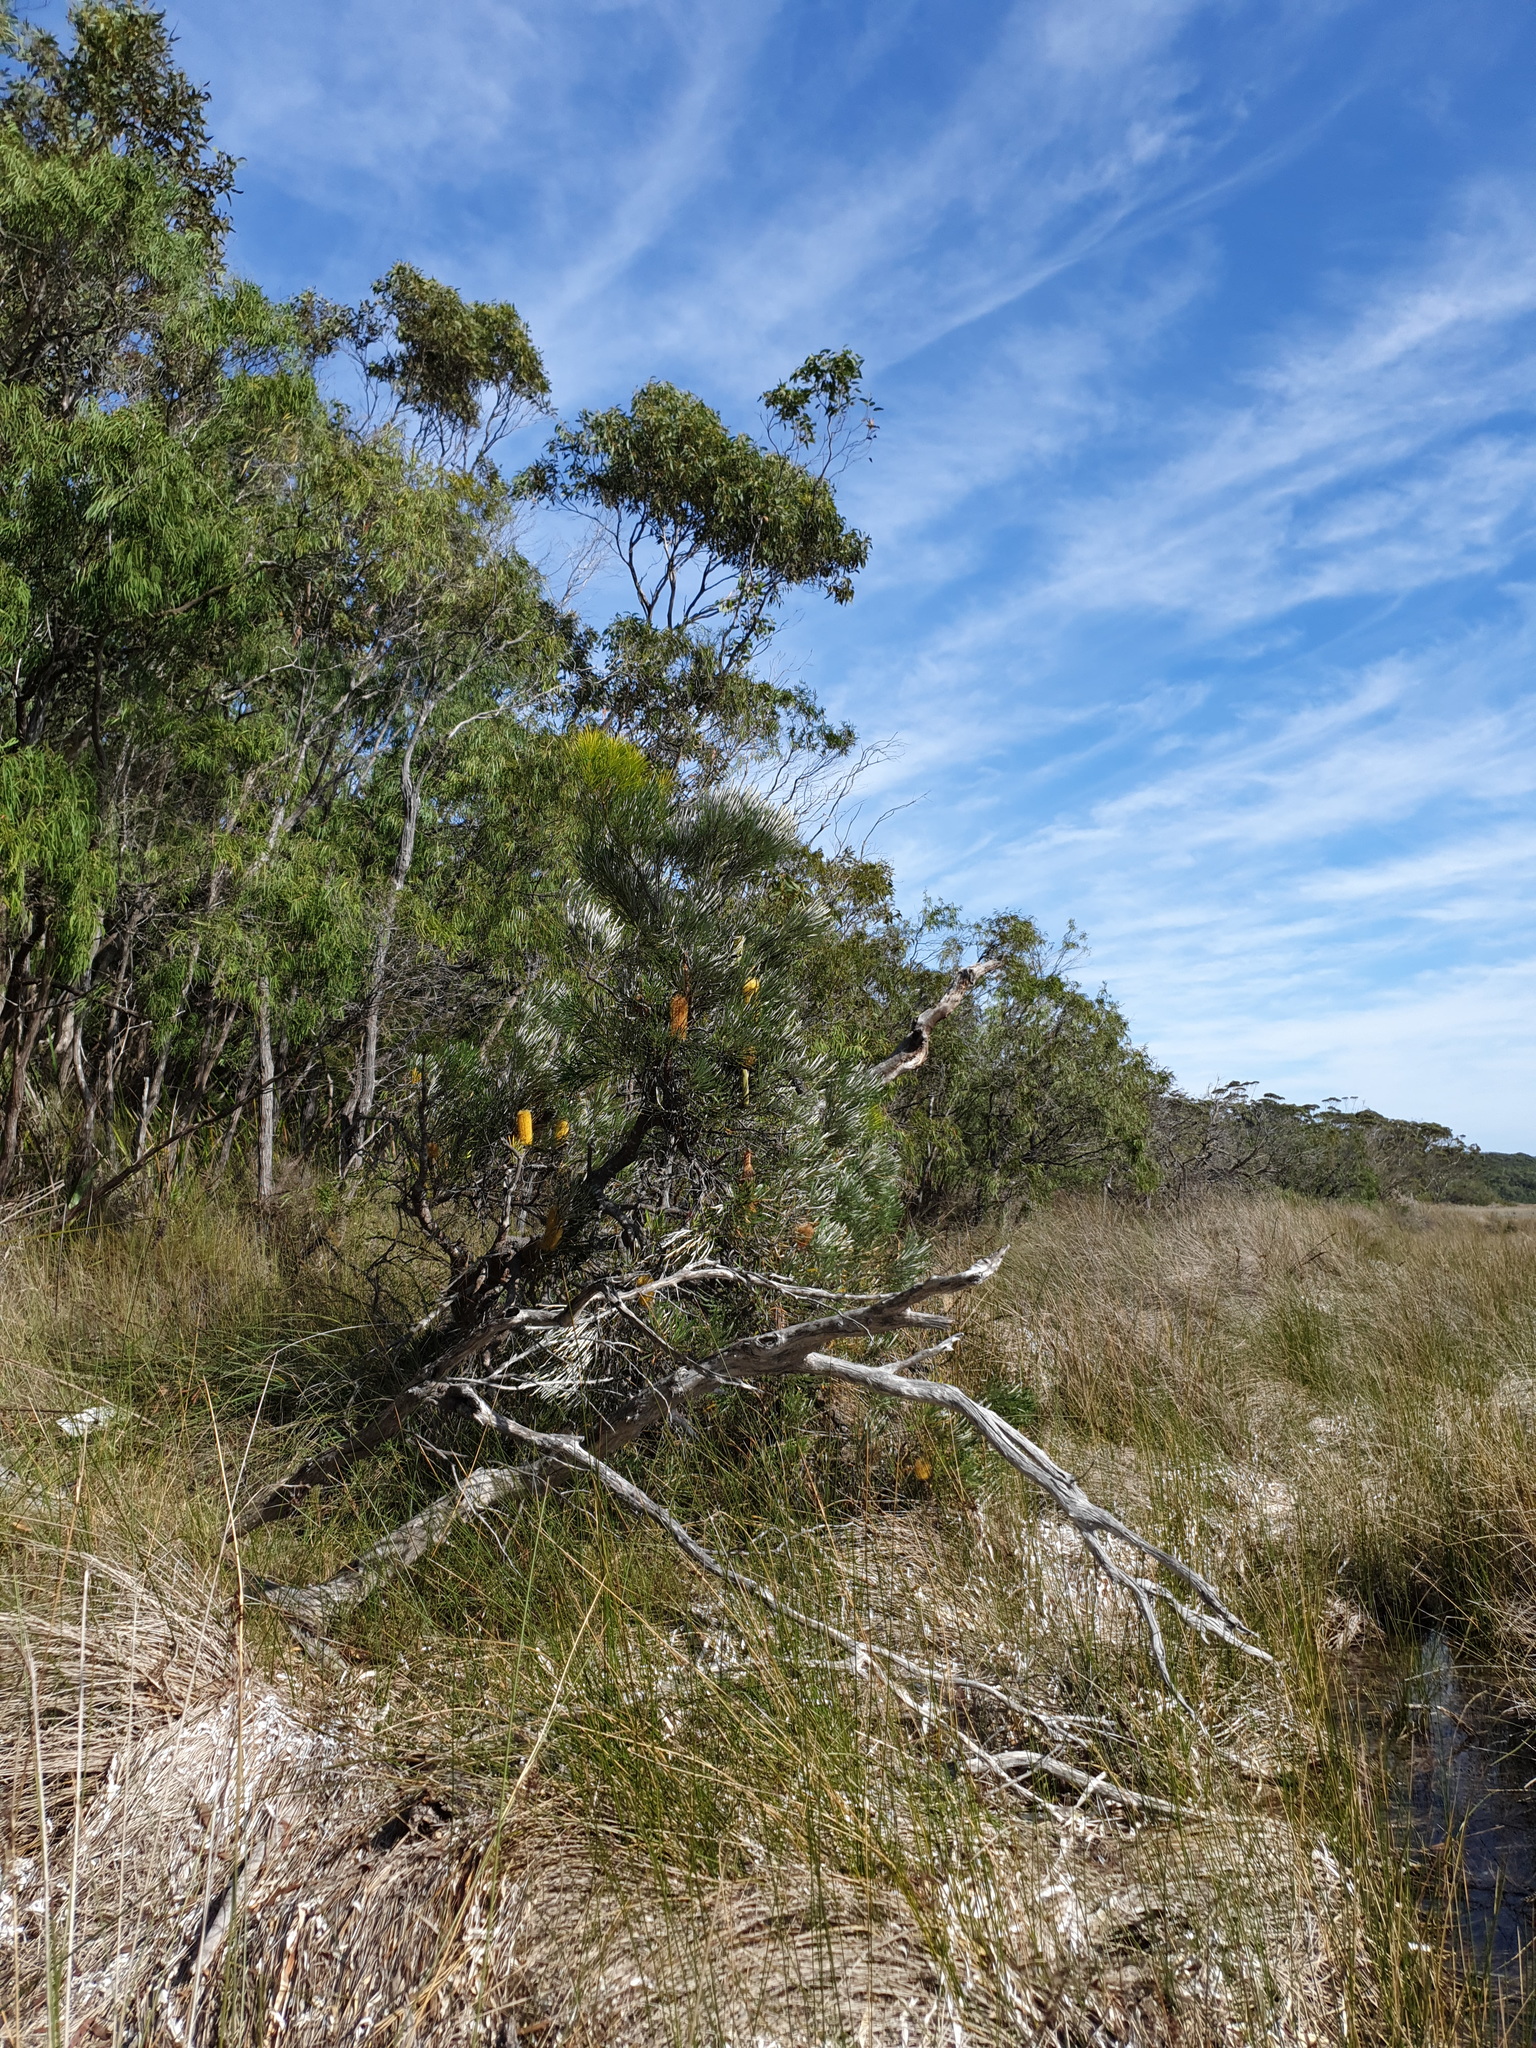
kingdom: Plantae
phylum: Tracheophyta
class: Magnoliopsida
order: Proteales
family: Proteaceae
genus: Banksia
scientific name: Banksia littoralis
